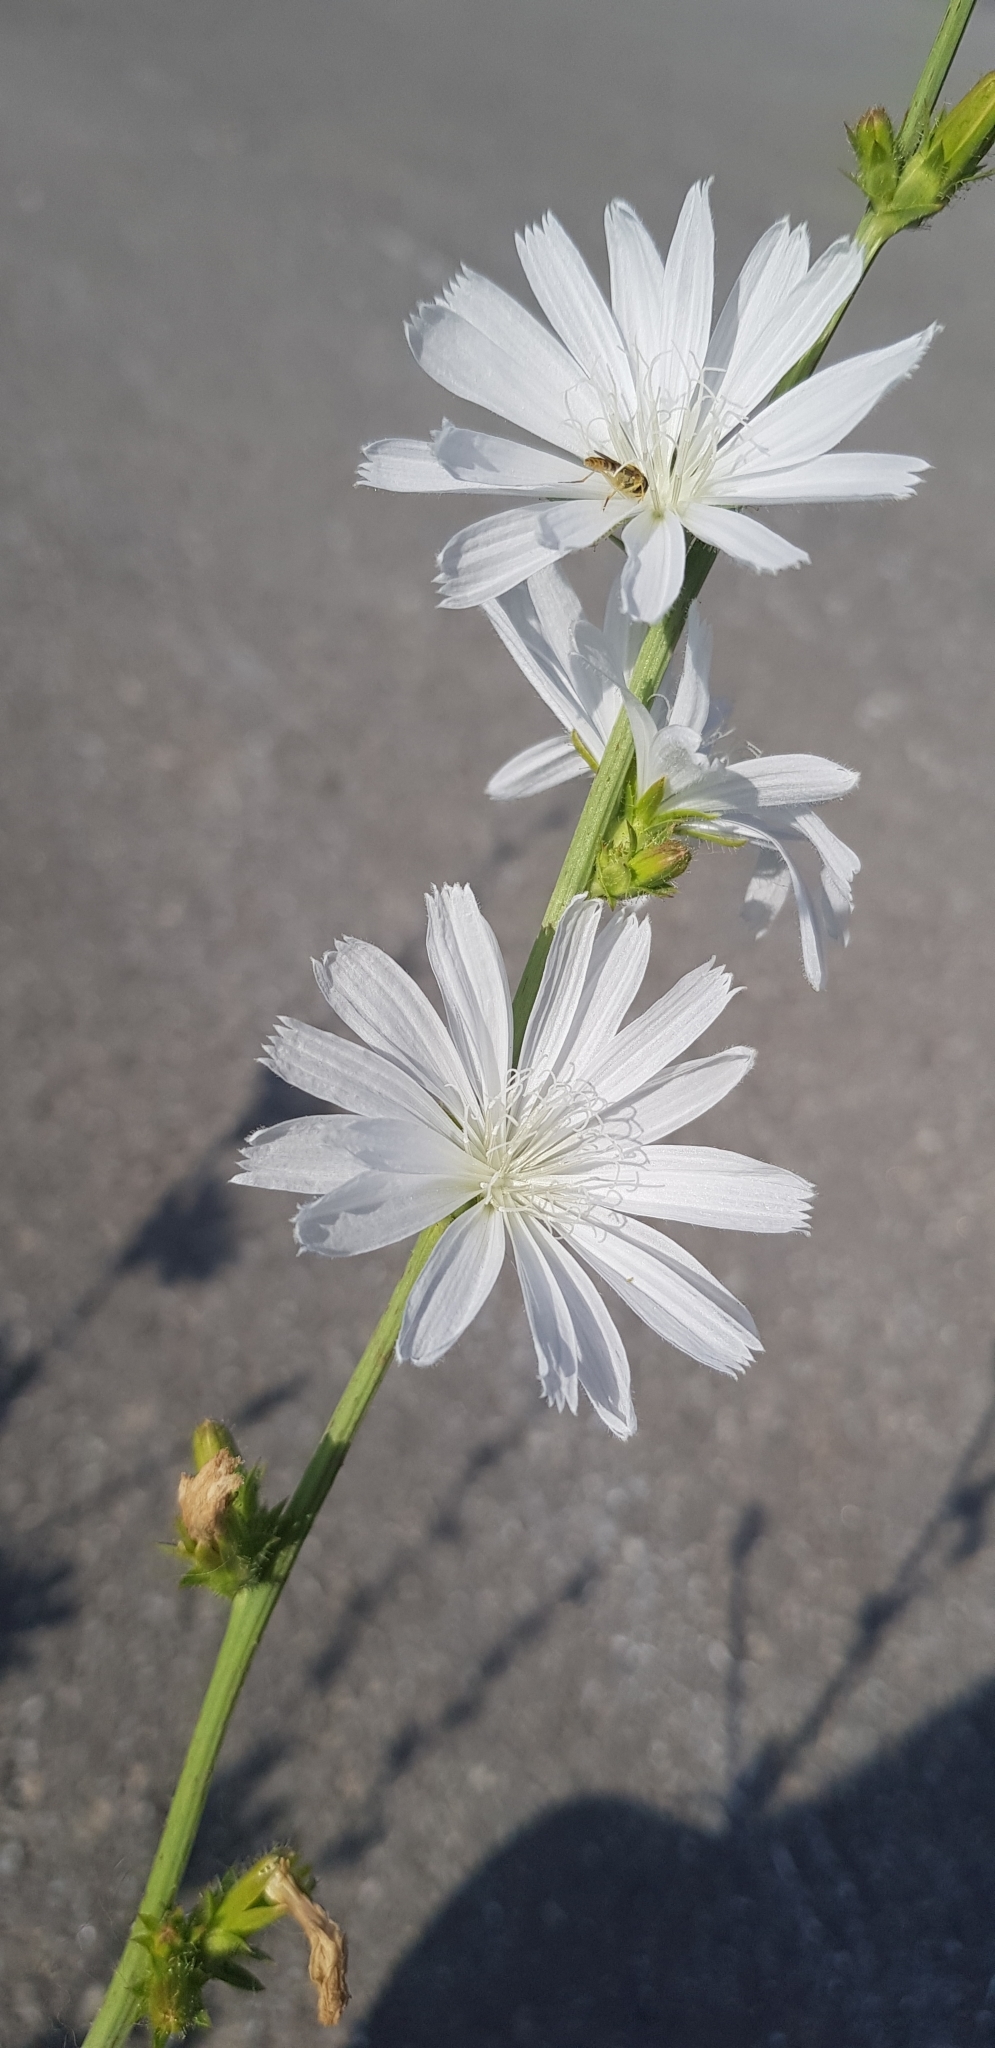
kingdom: Plantae
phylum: Tracheophyta
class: Magnoliopsida
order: Asterales
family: Asteraceae
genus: Cichorium
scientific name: Cichorium intybus
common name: Chicory
